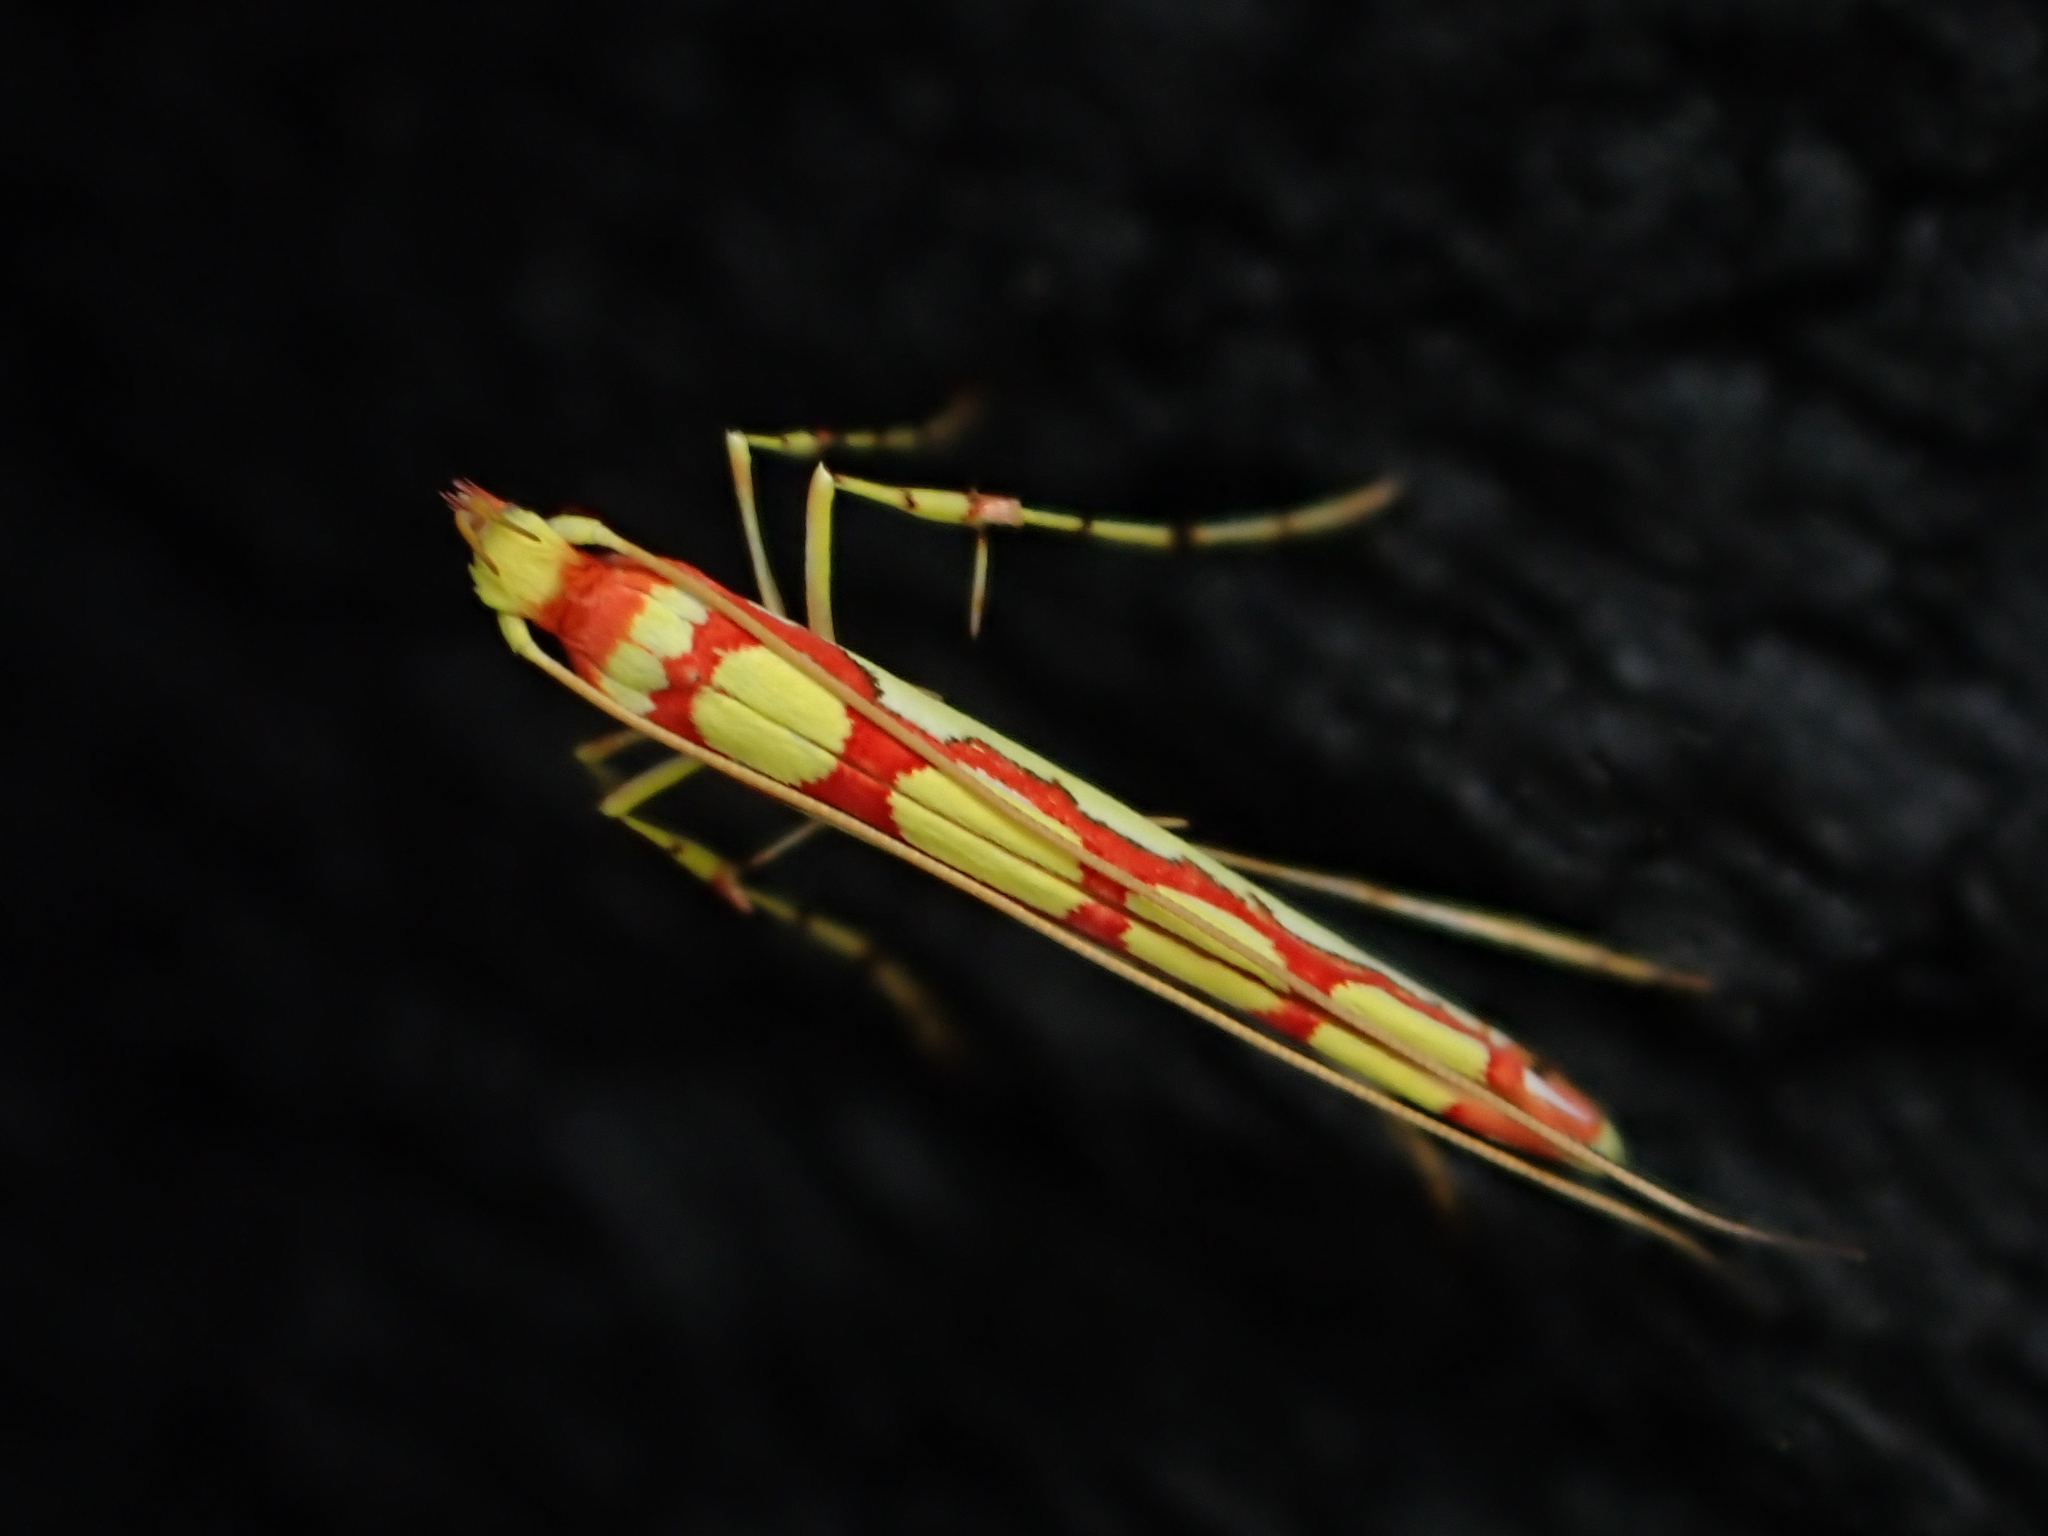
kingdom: Animalia
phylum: Arthropoda
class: Insecta
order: Lepidoptera
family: Gracillariidae
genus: Macarostola
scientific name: Macarostola miniella
